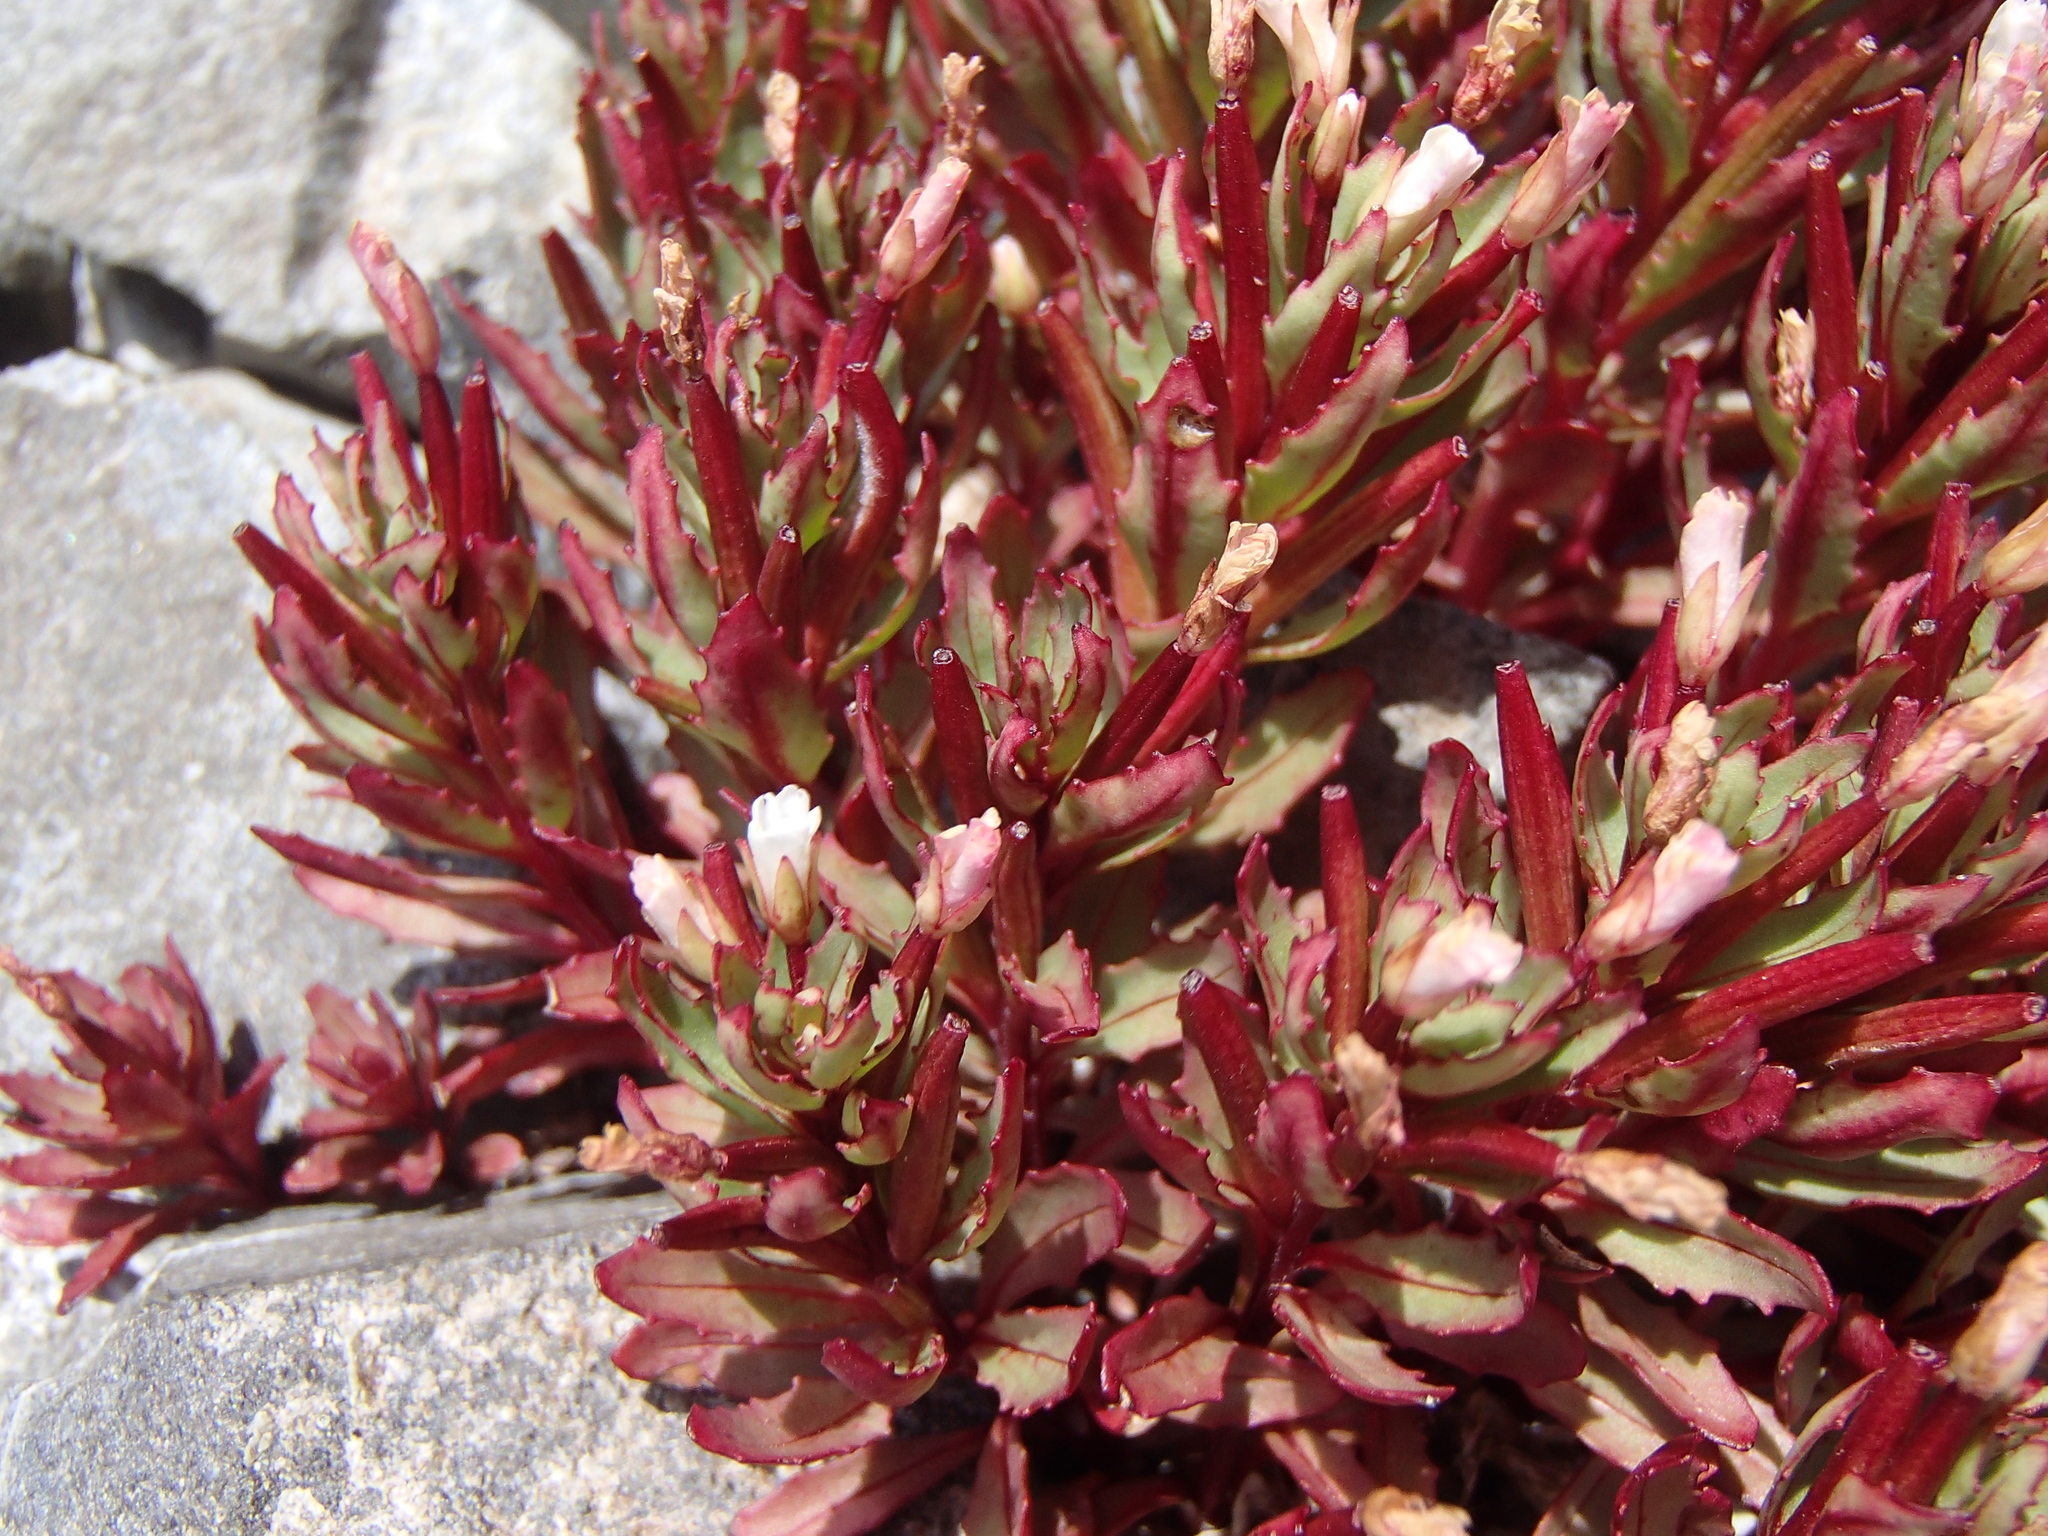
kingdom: Plantae
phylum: Tracheophyta
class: Magnoliopsida
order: Myrtales
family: Onagraceae
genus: Epilobium
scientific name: Epilobium pycnostachyum
